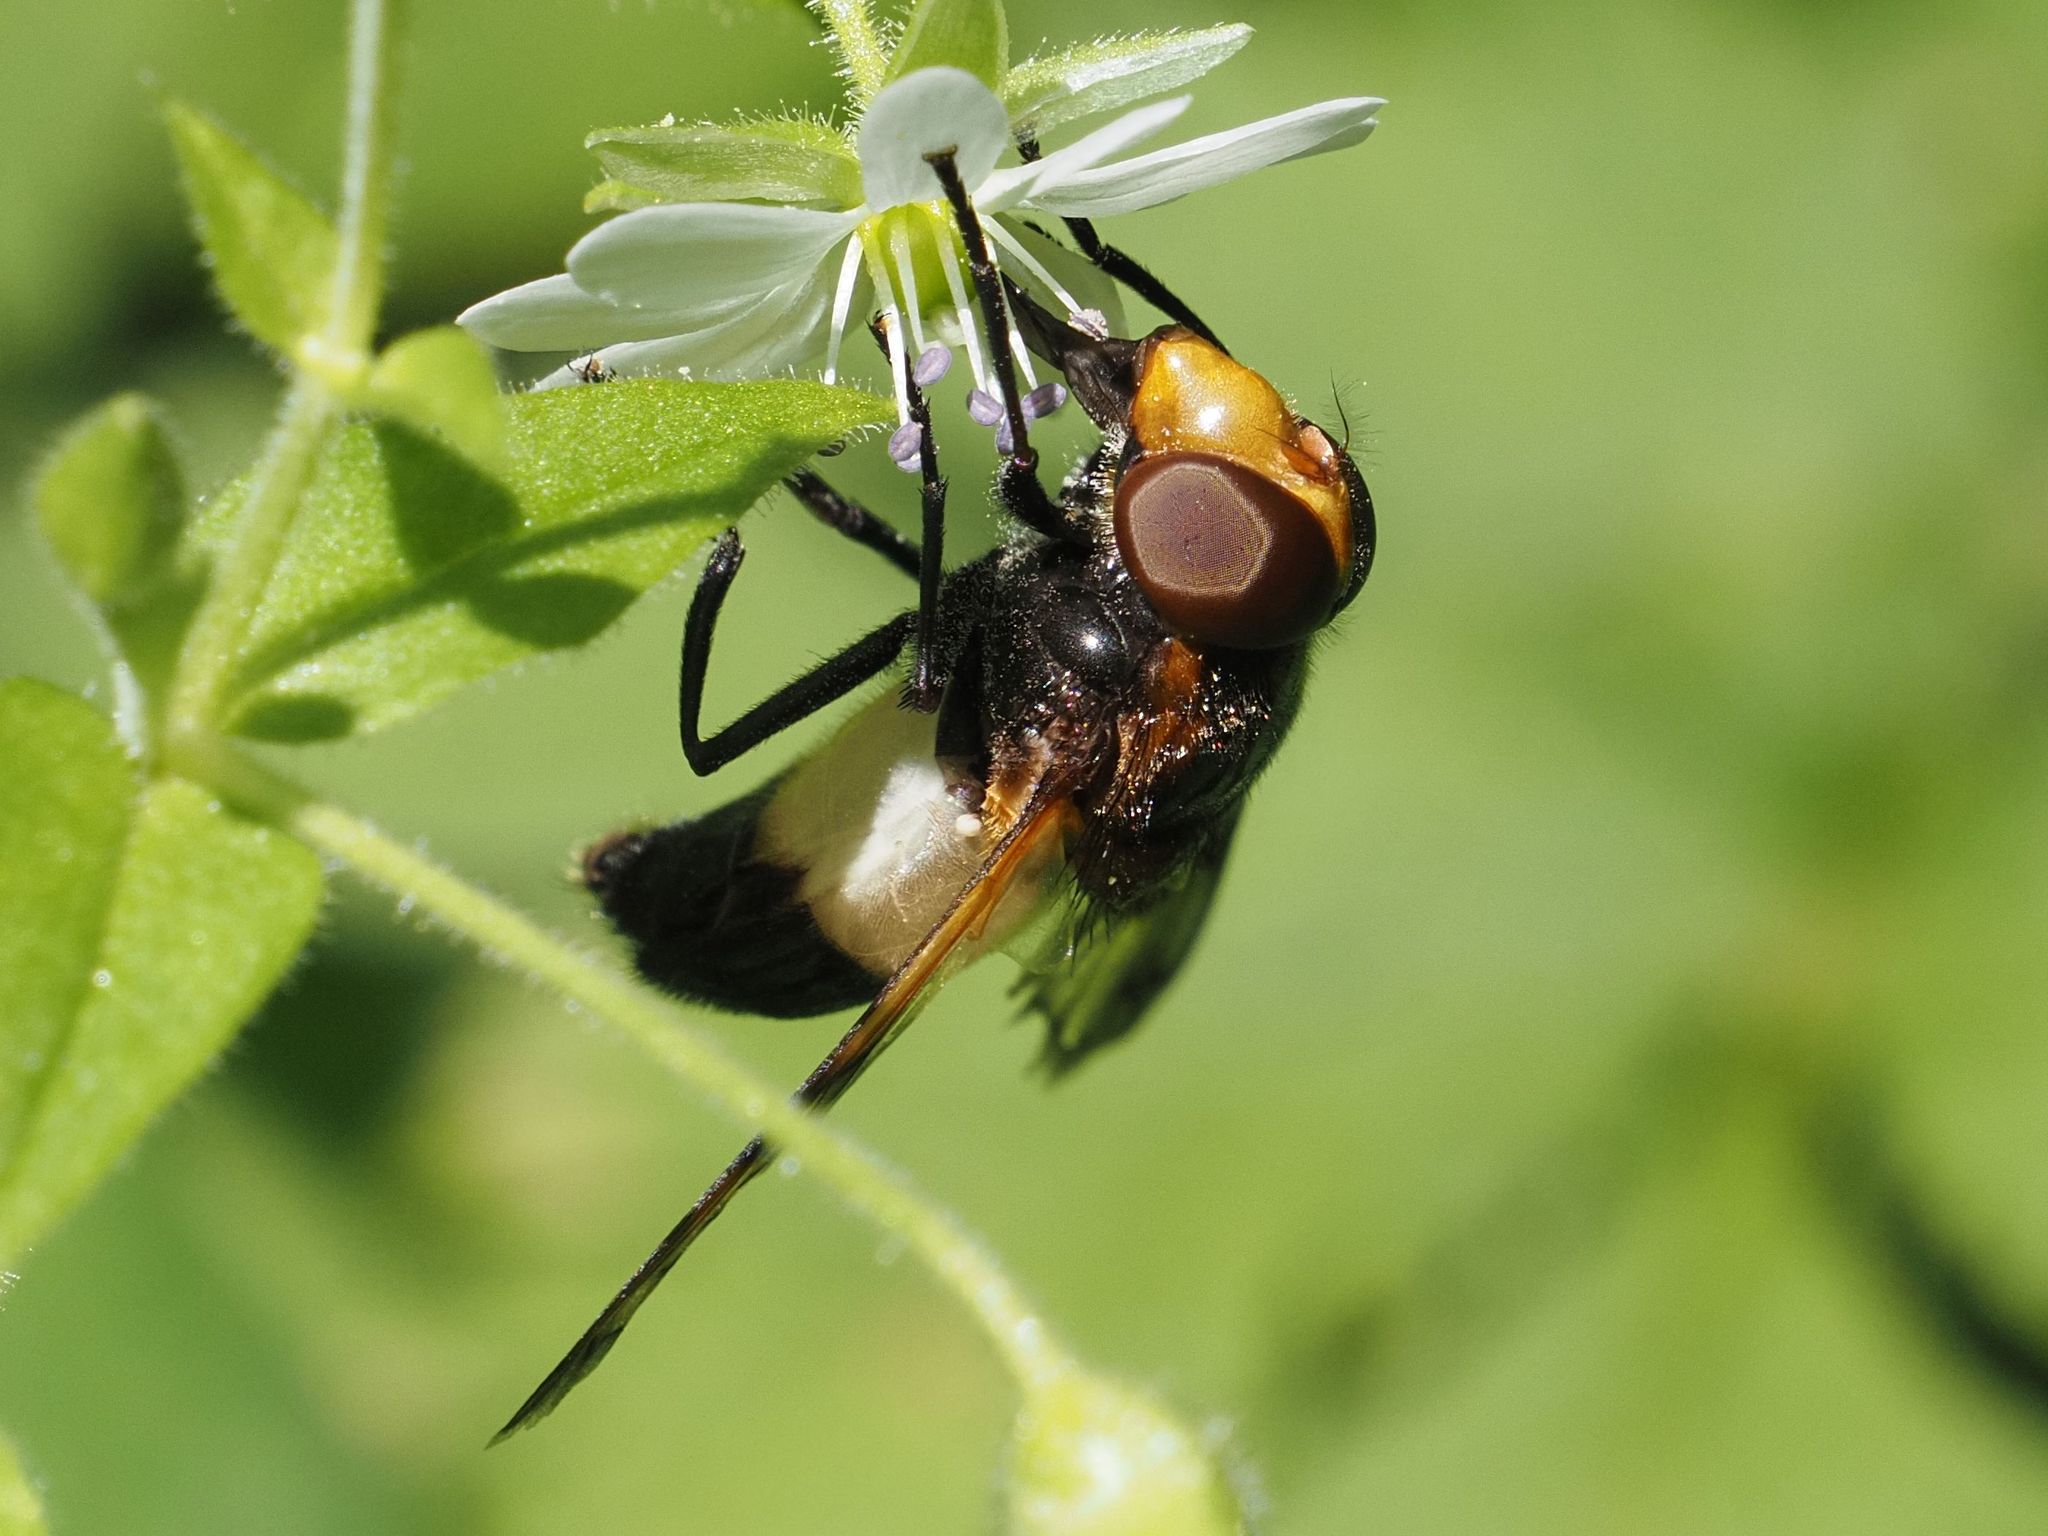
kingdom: Animalia
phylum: Arthropoda
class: Insecta
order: Diptera
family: Syrphidae
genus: Volucella
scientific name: Volucella pellucens
